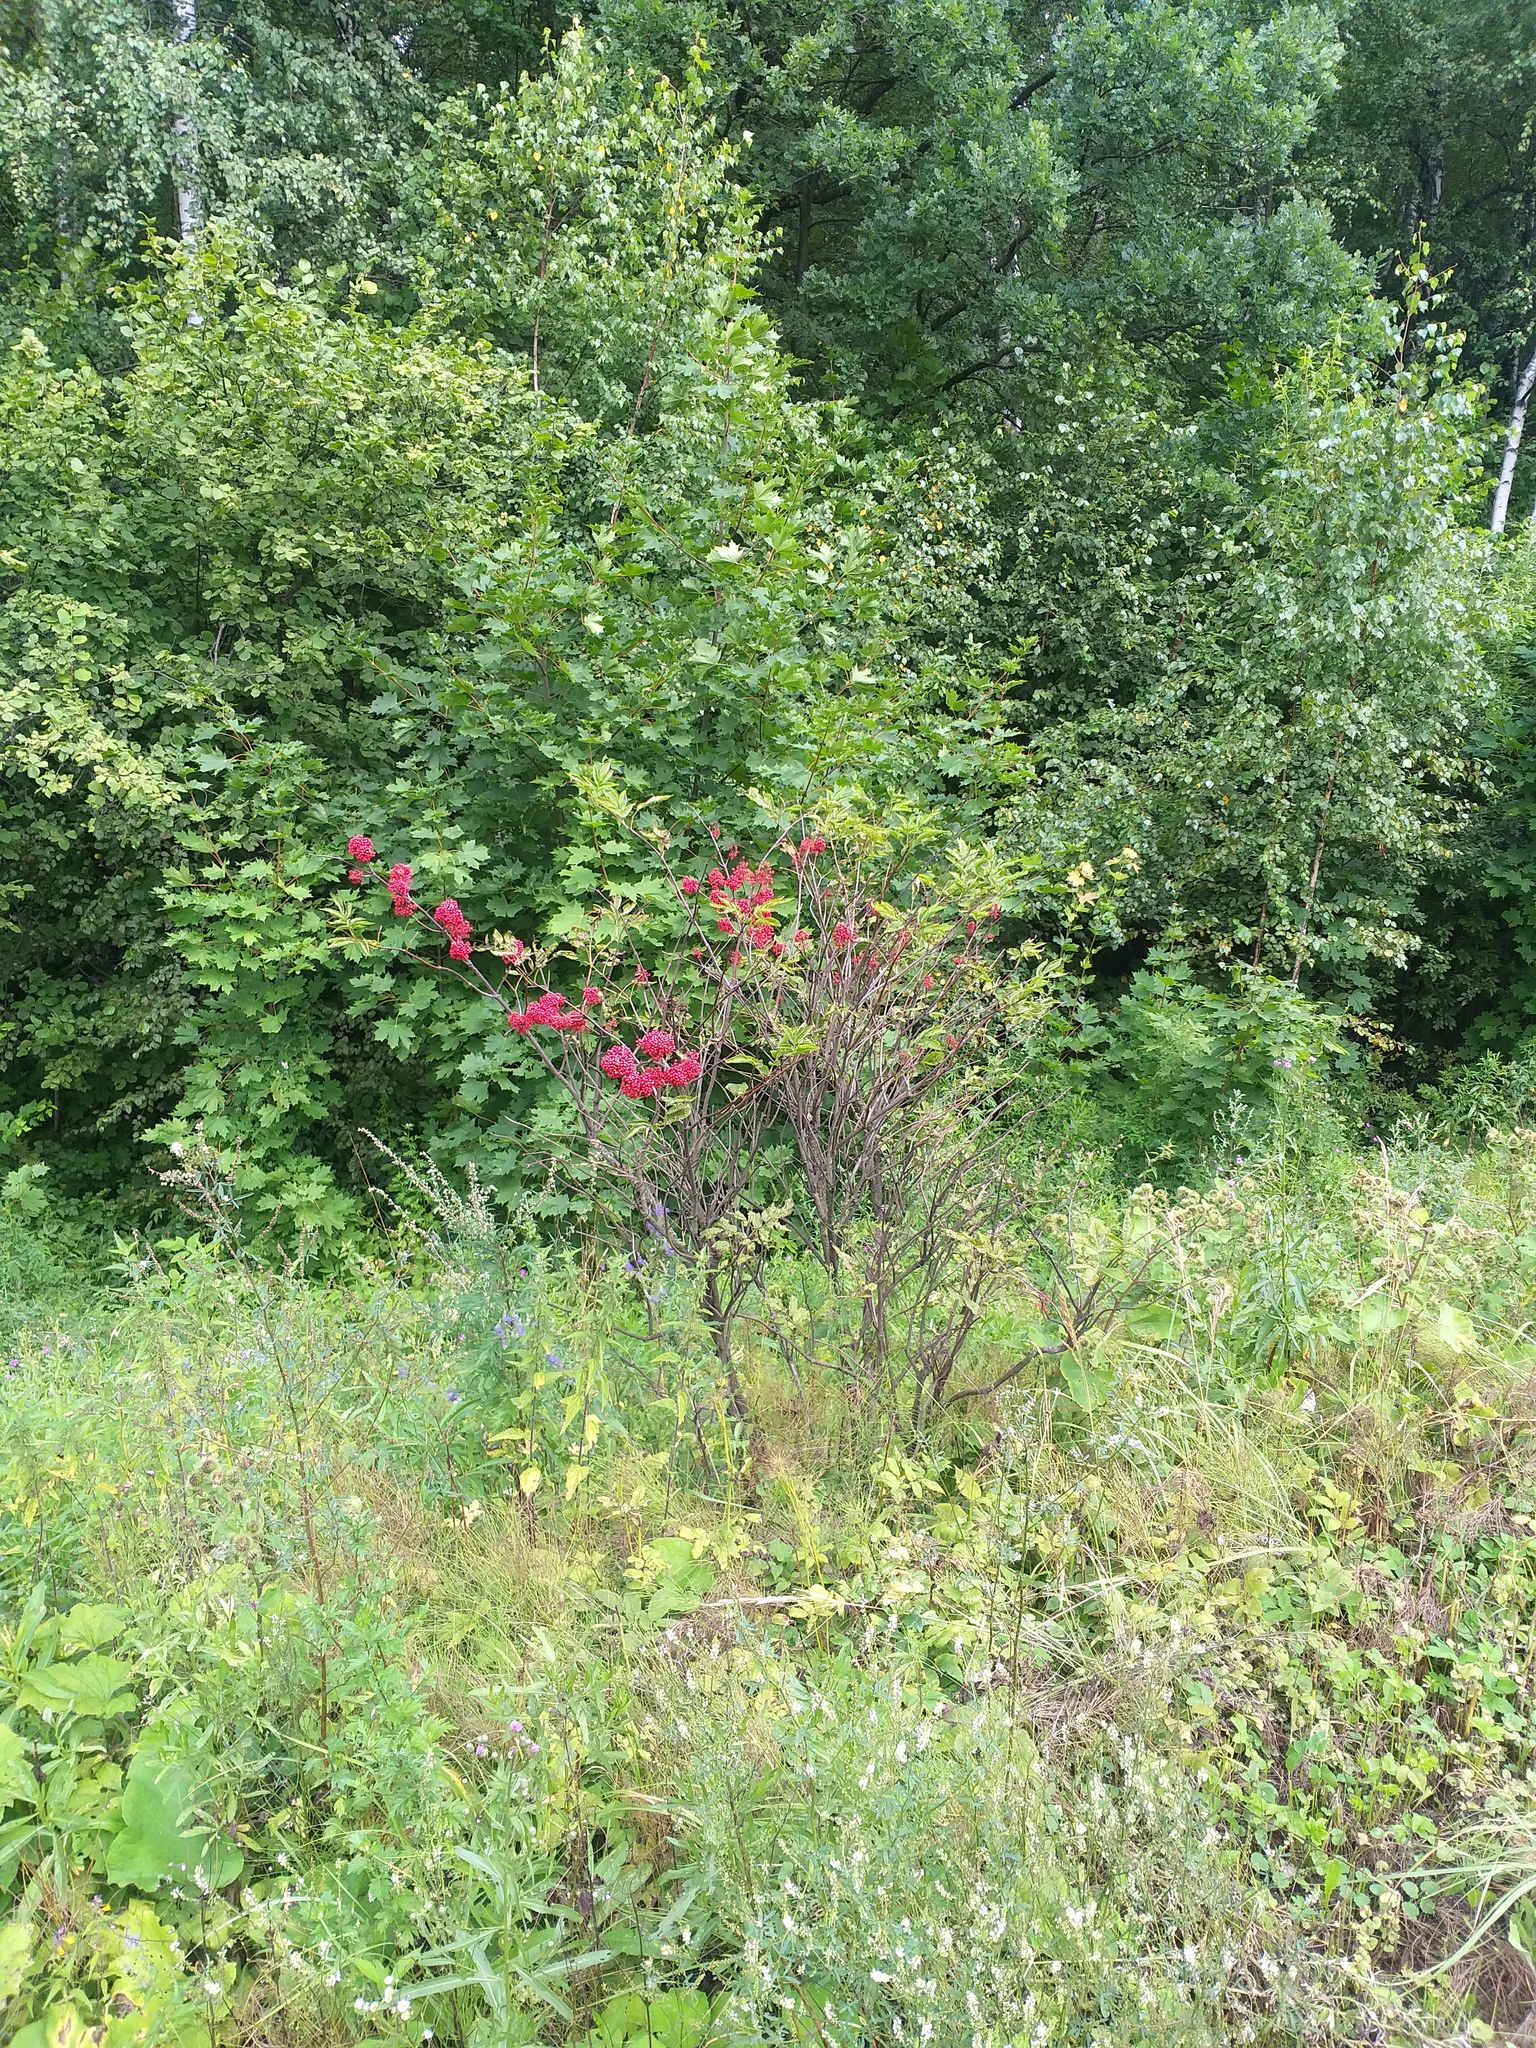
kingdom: Plantae
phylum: Tracheophyta
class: Magnoliopsida
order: Dipsacales
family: Viburnaceae
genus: Sambucus
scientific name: Sambucus racemosa
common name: Red-berried elder
